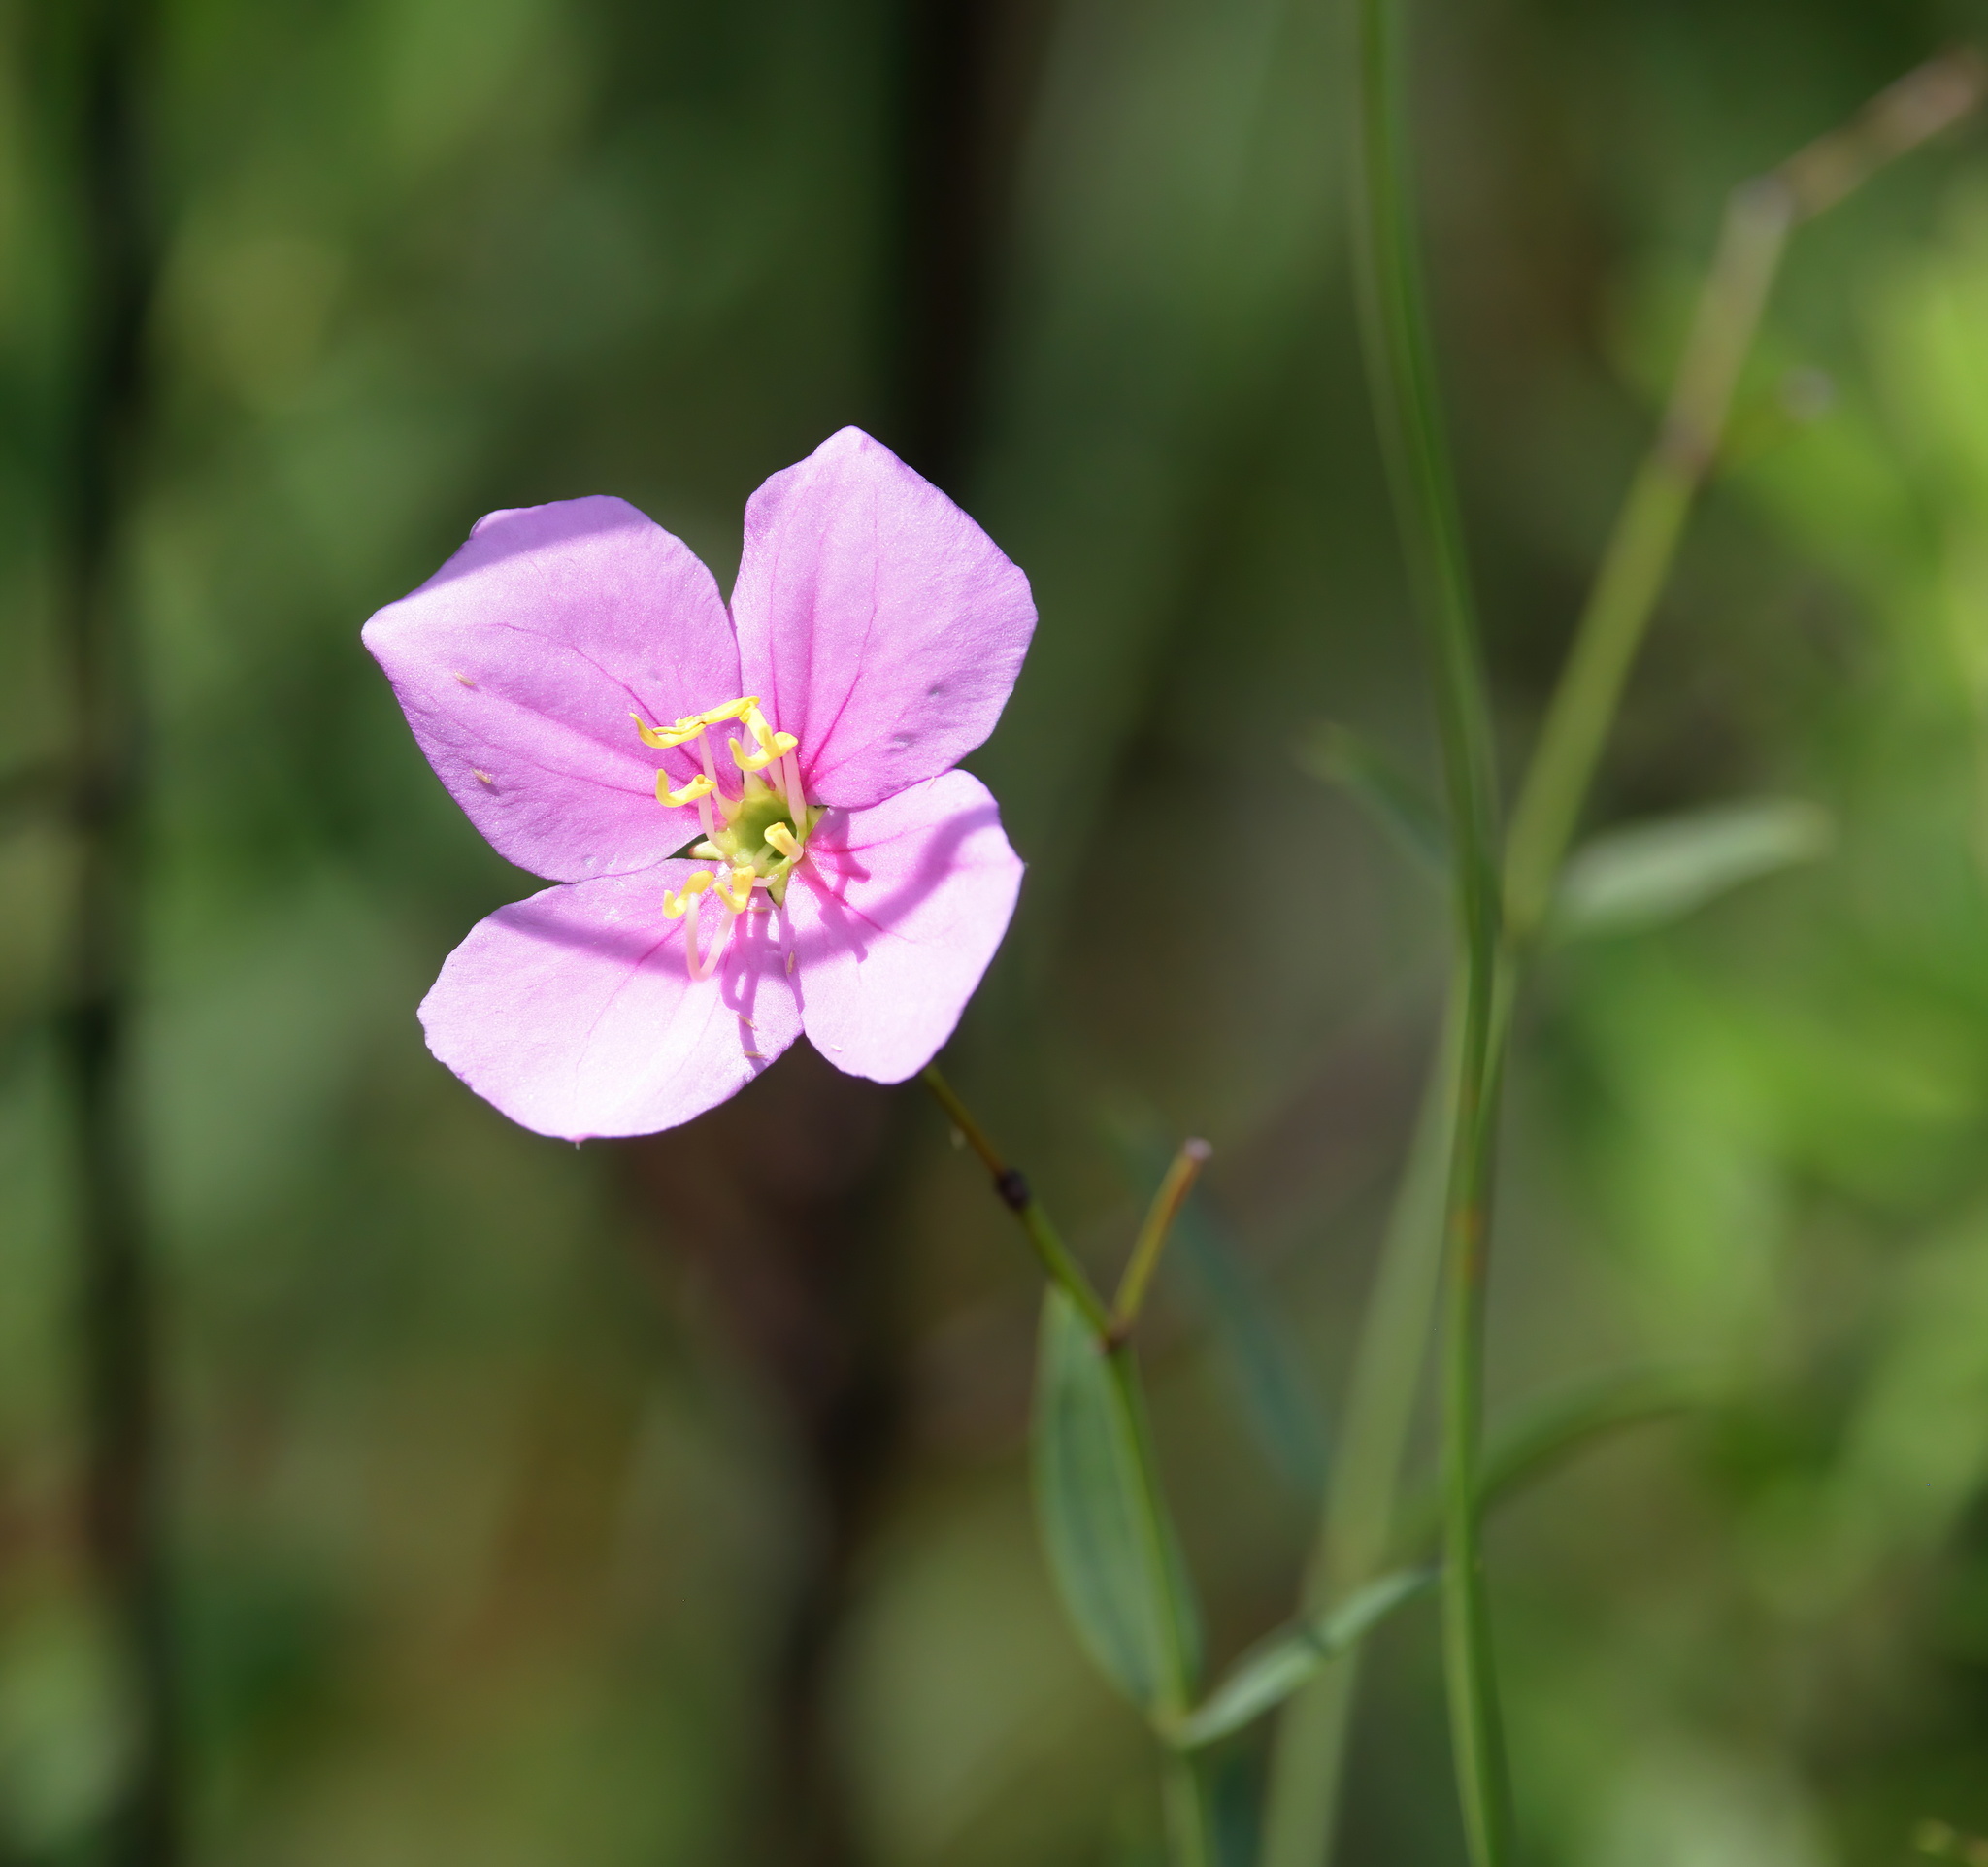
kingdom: Plantae
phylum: Tracheophyta
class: Magnoliopsida
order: Myrtales
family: Melastomataceae
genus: Rhexia
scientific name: Rhexia alifanus
